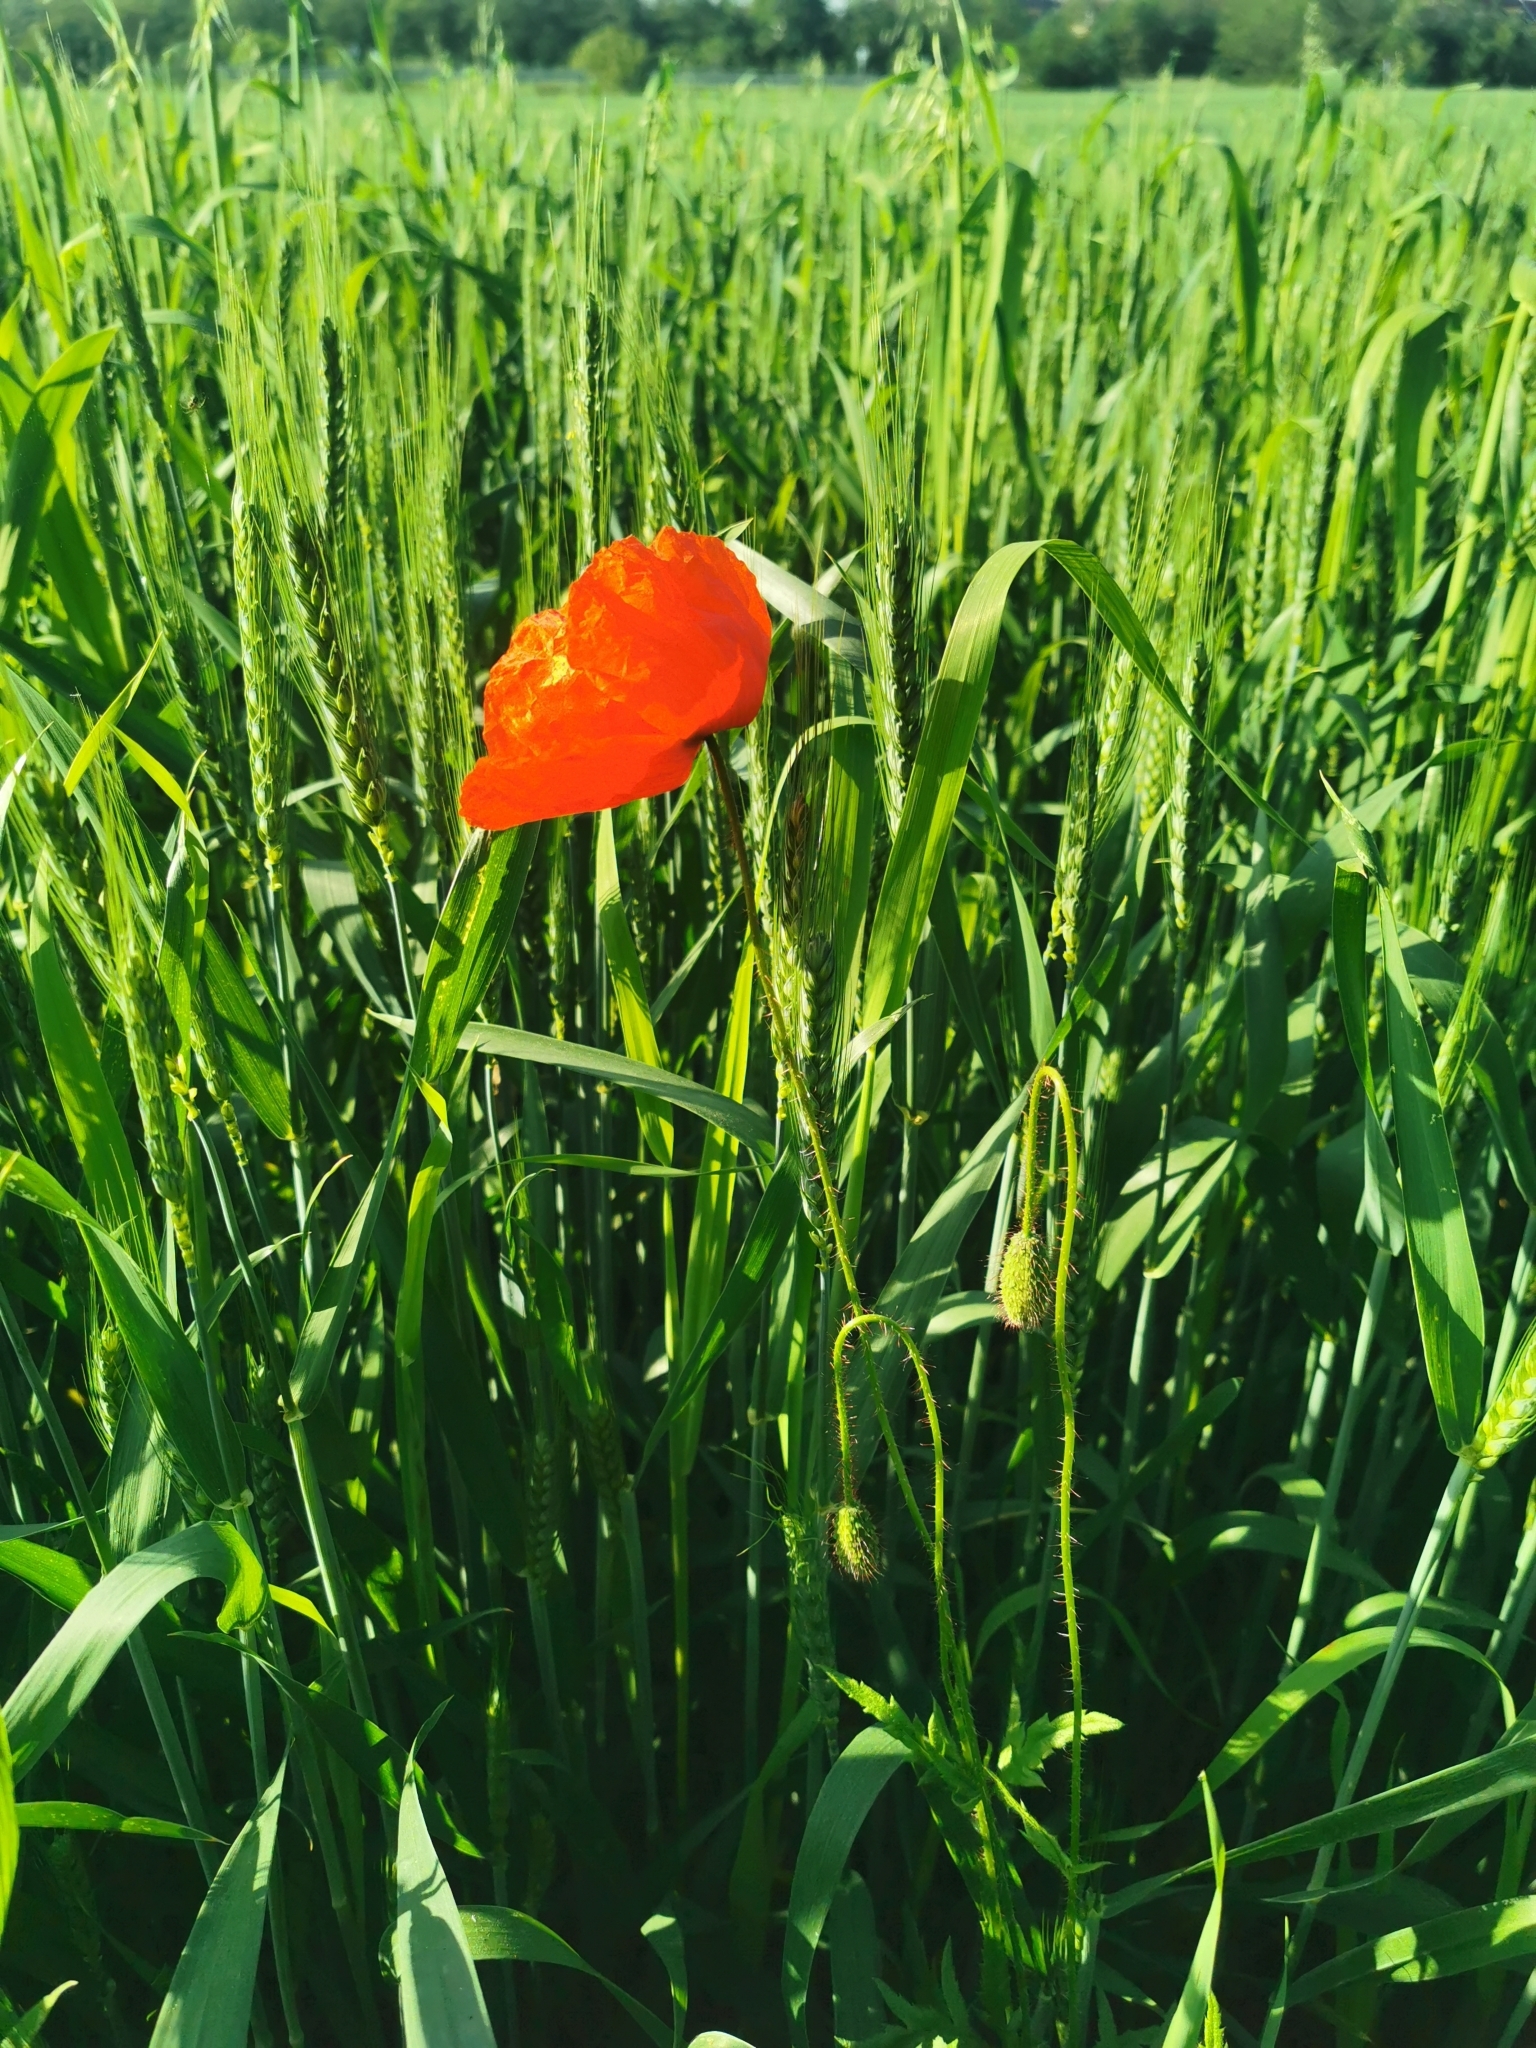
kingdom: Plantae
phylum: Tracheophyta
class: Magnoliopsida
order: Ranunculales
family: Papaveraceae
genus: Papaver
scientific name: Papaver rhoeas
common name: Corn poppy
